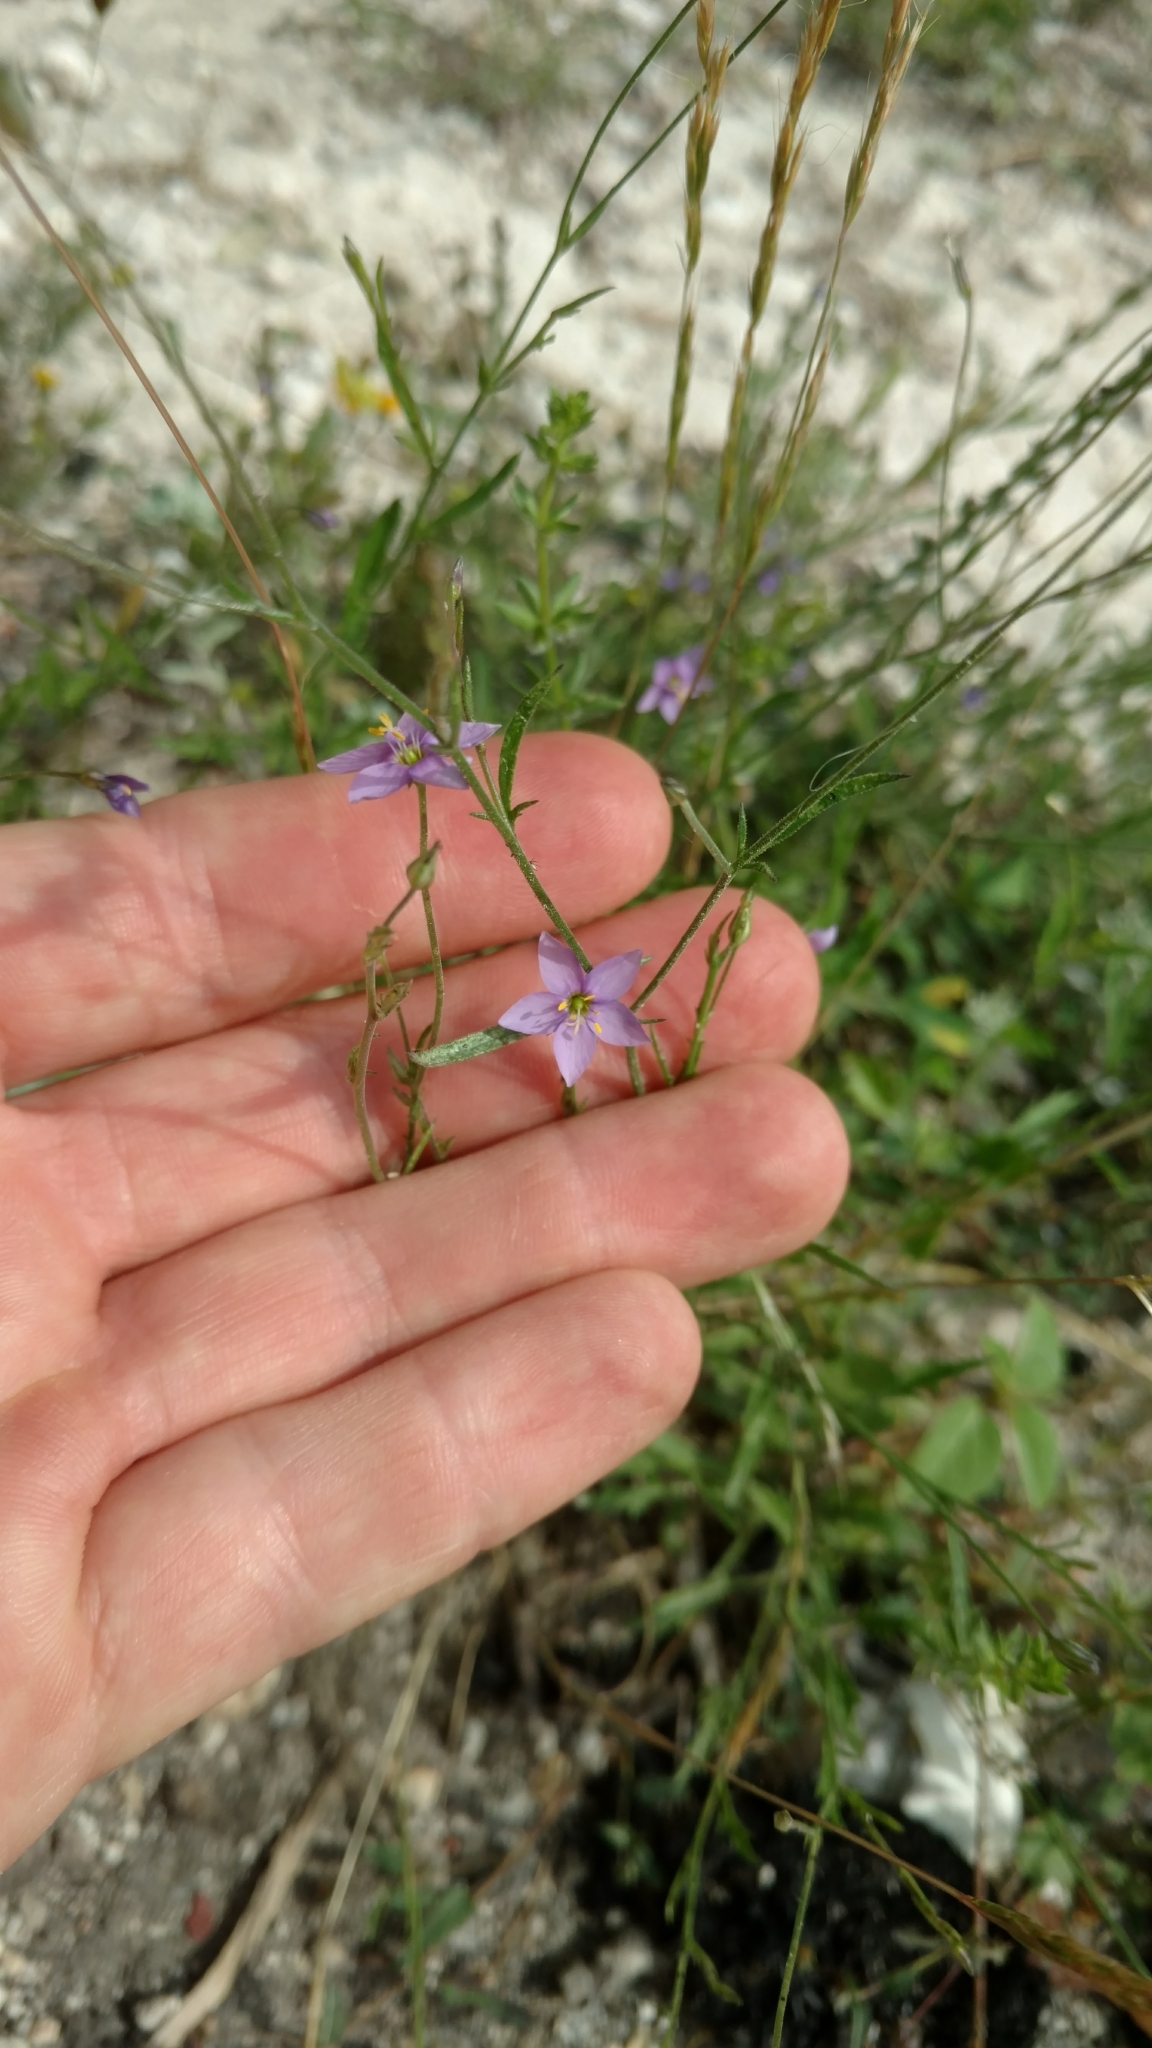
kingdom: Plantae
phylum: Tracheophyta
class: Magnoliopsida
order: Ericales
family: Polemoniaceae
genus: Giliastrum
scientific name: Giliastrum incisum
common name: Splitleaf gilia
